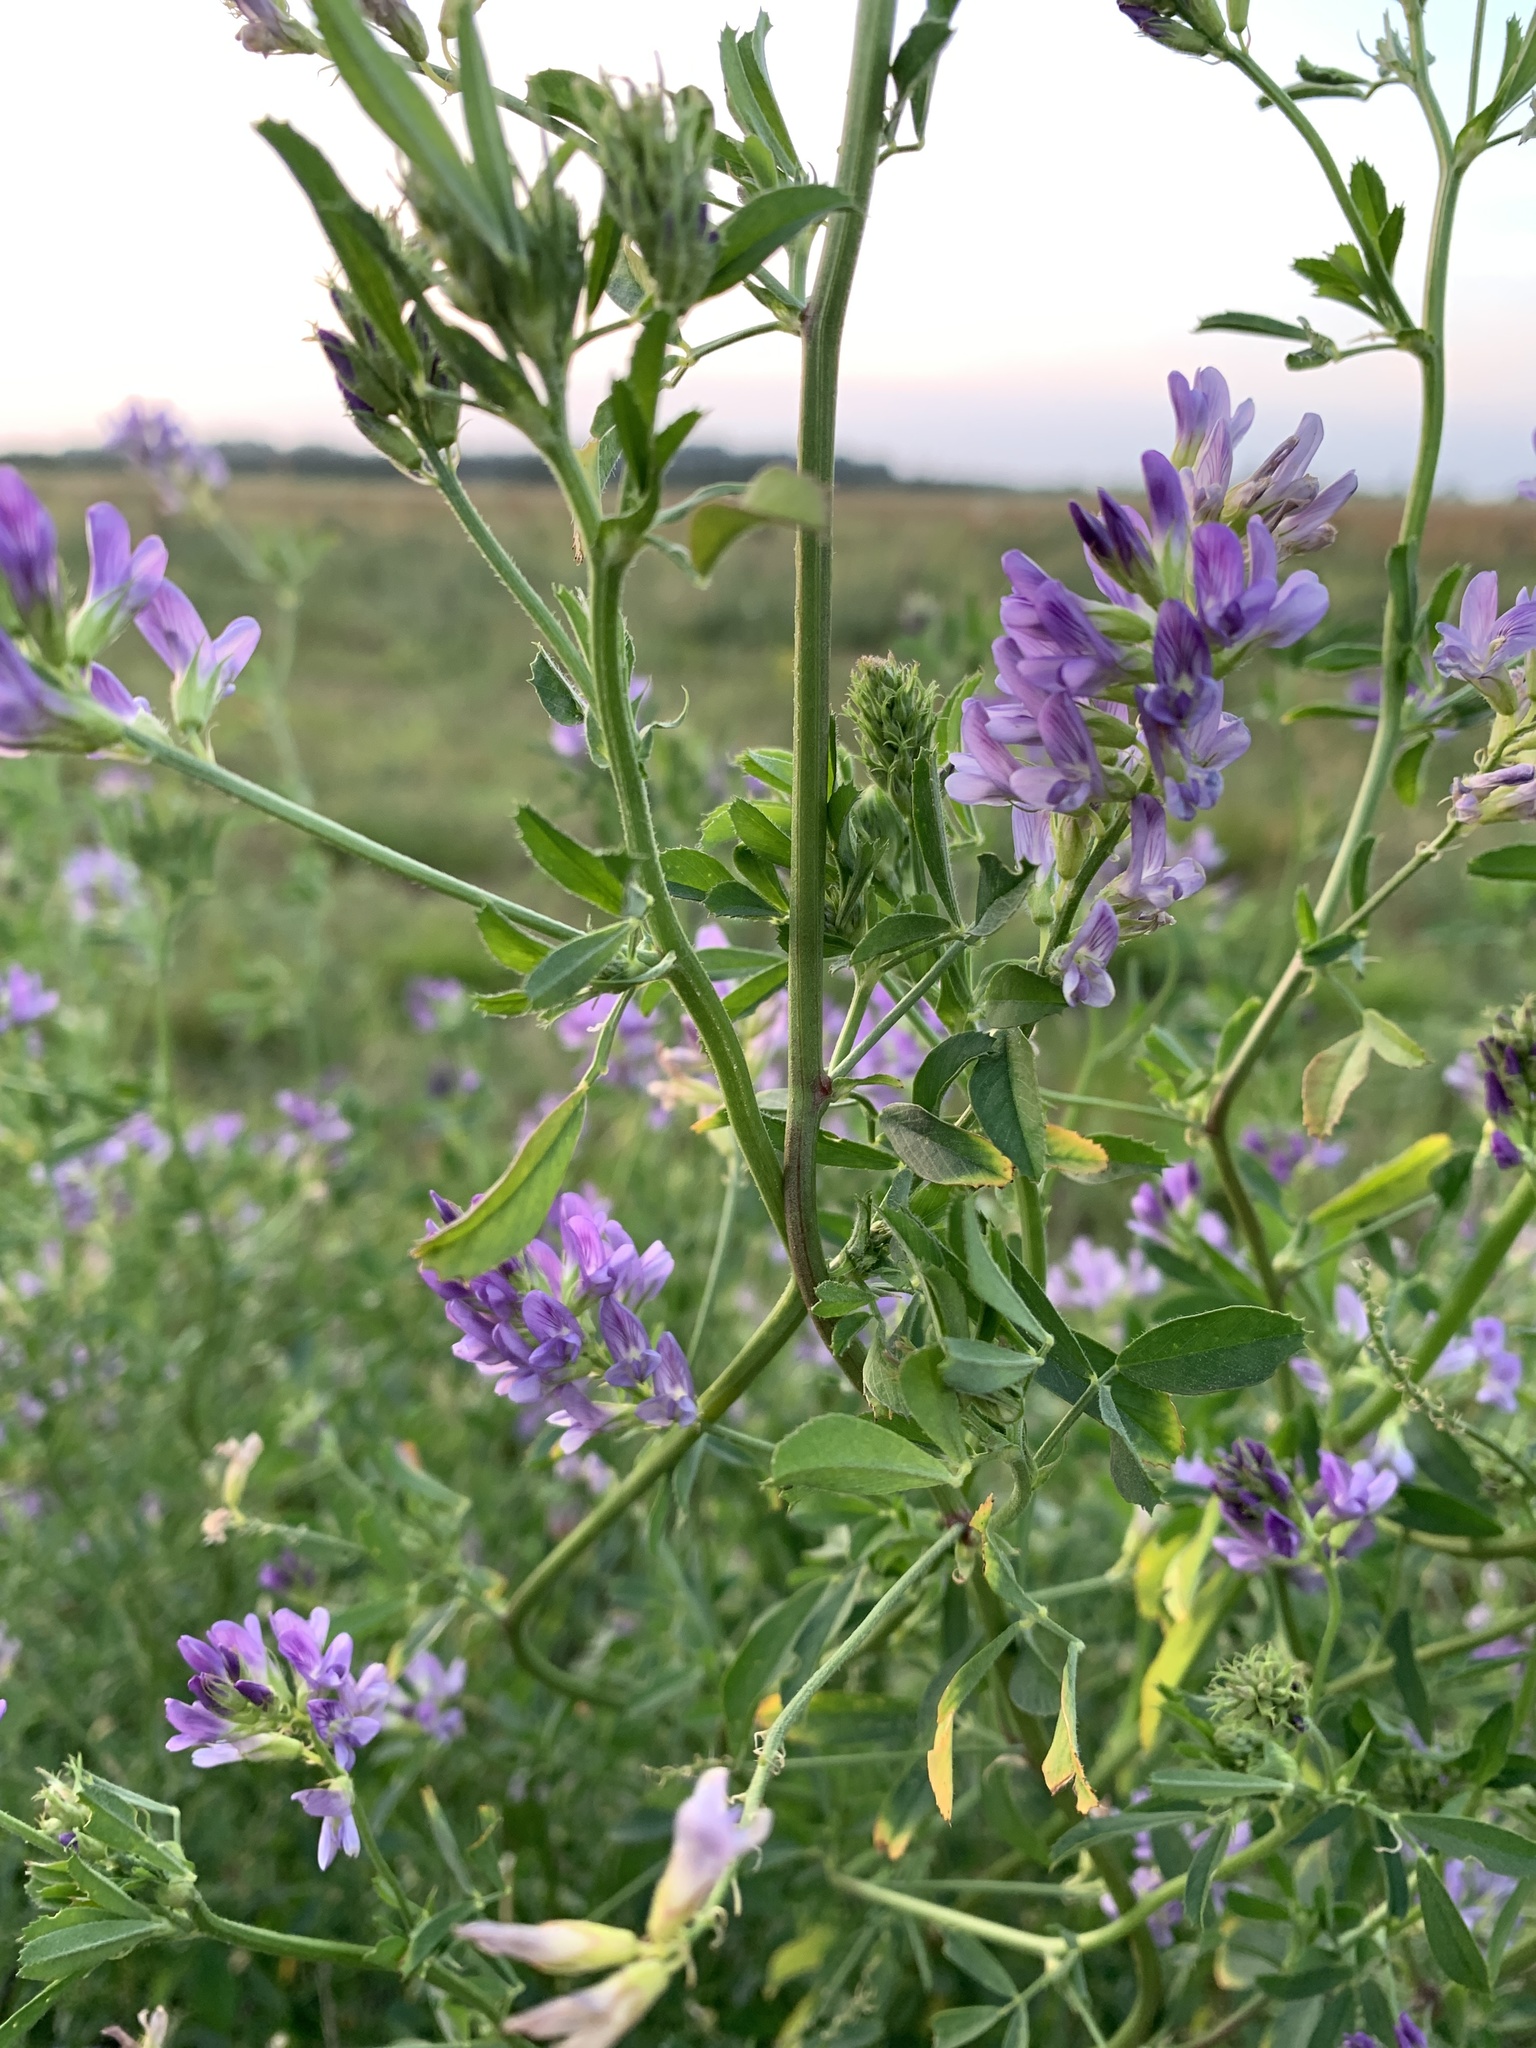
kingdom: Plantae
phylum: Tracheophyta
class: Magnoliopsida
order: Fabales
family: Fabaceae
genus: Medicago
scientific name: Medicago sativa
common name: Alfalfa
